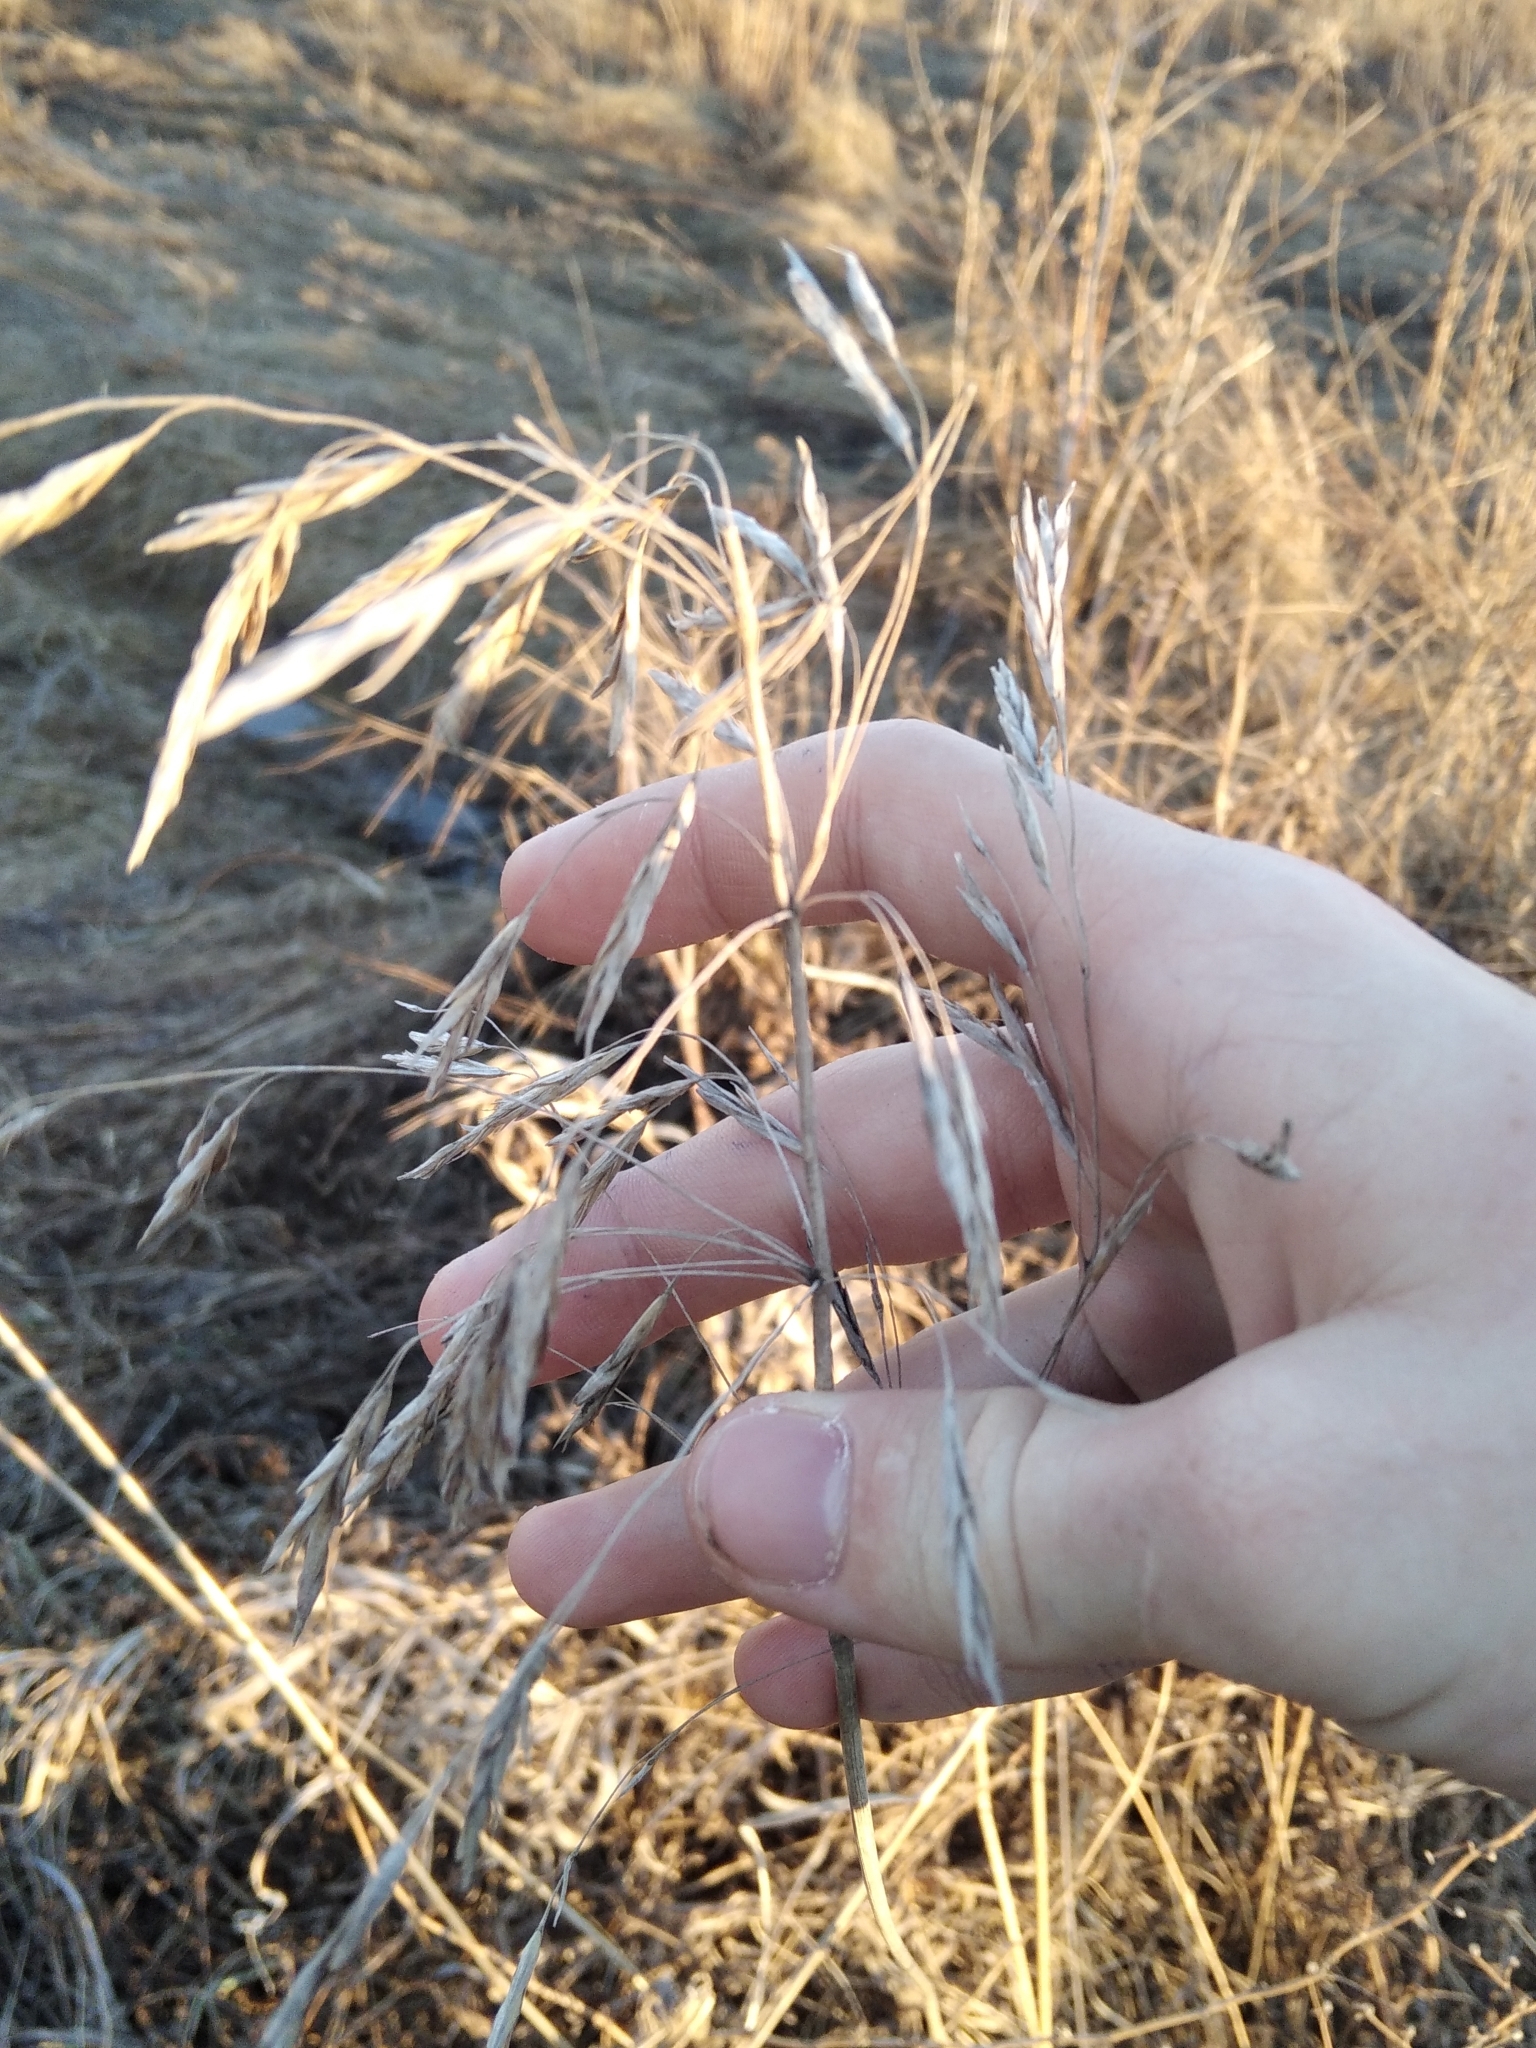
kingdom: Plantae
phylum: Tracheophyta
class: Liliopsida
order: Poales
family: Poaceae
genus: Bromus
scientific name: Bromus inermis
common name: Smooth brome
